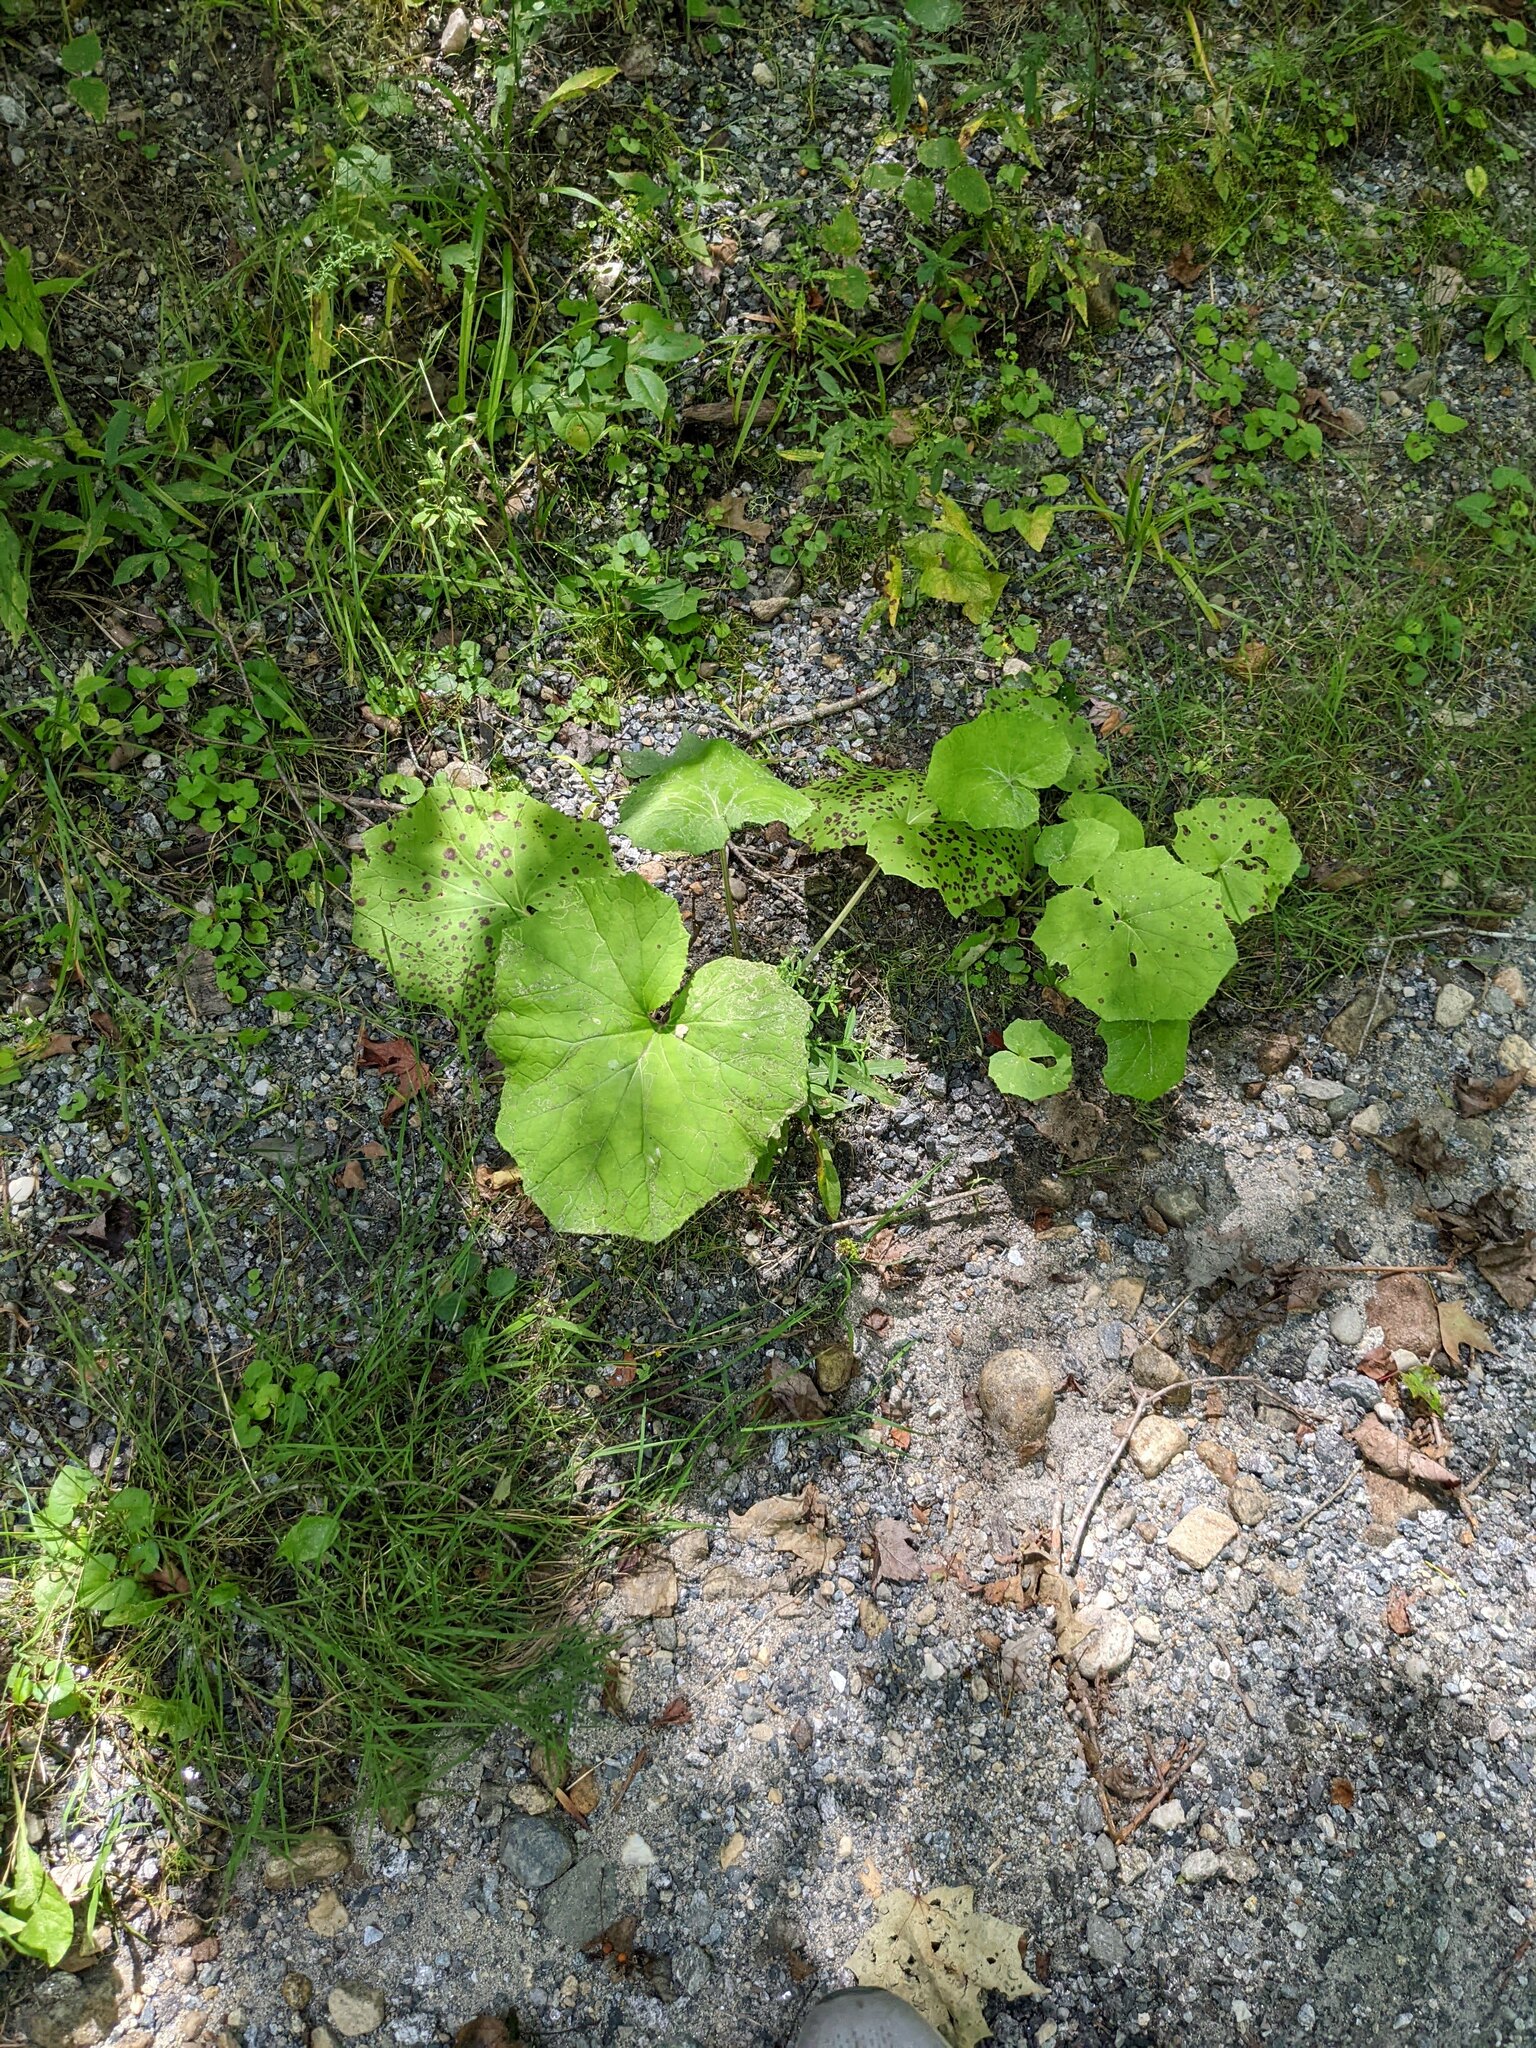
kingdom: Plantae
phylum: Tracheophyta
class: Magnoliopsida
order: Asterales
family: Asteraceae
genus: Tussilago
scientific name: Tussilago farfara
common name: Coltsfoot
